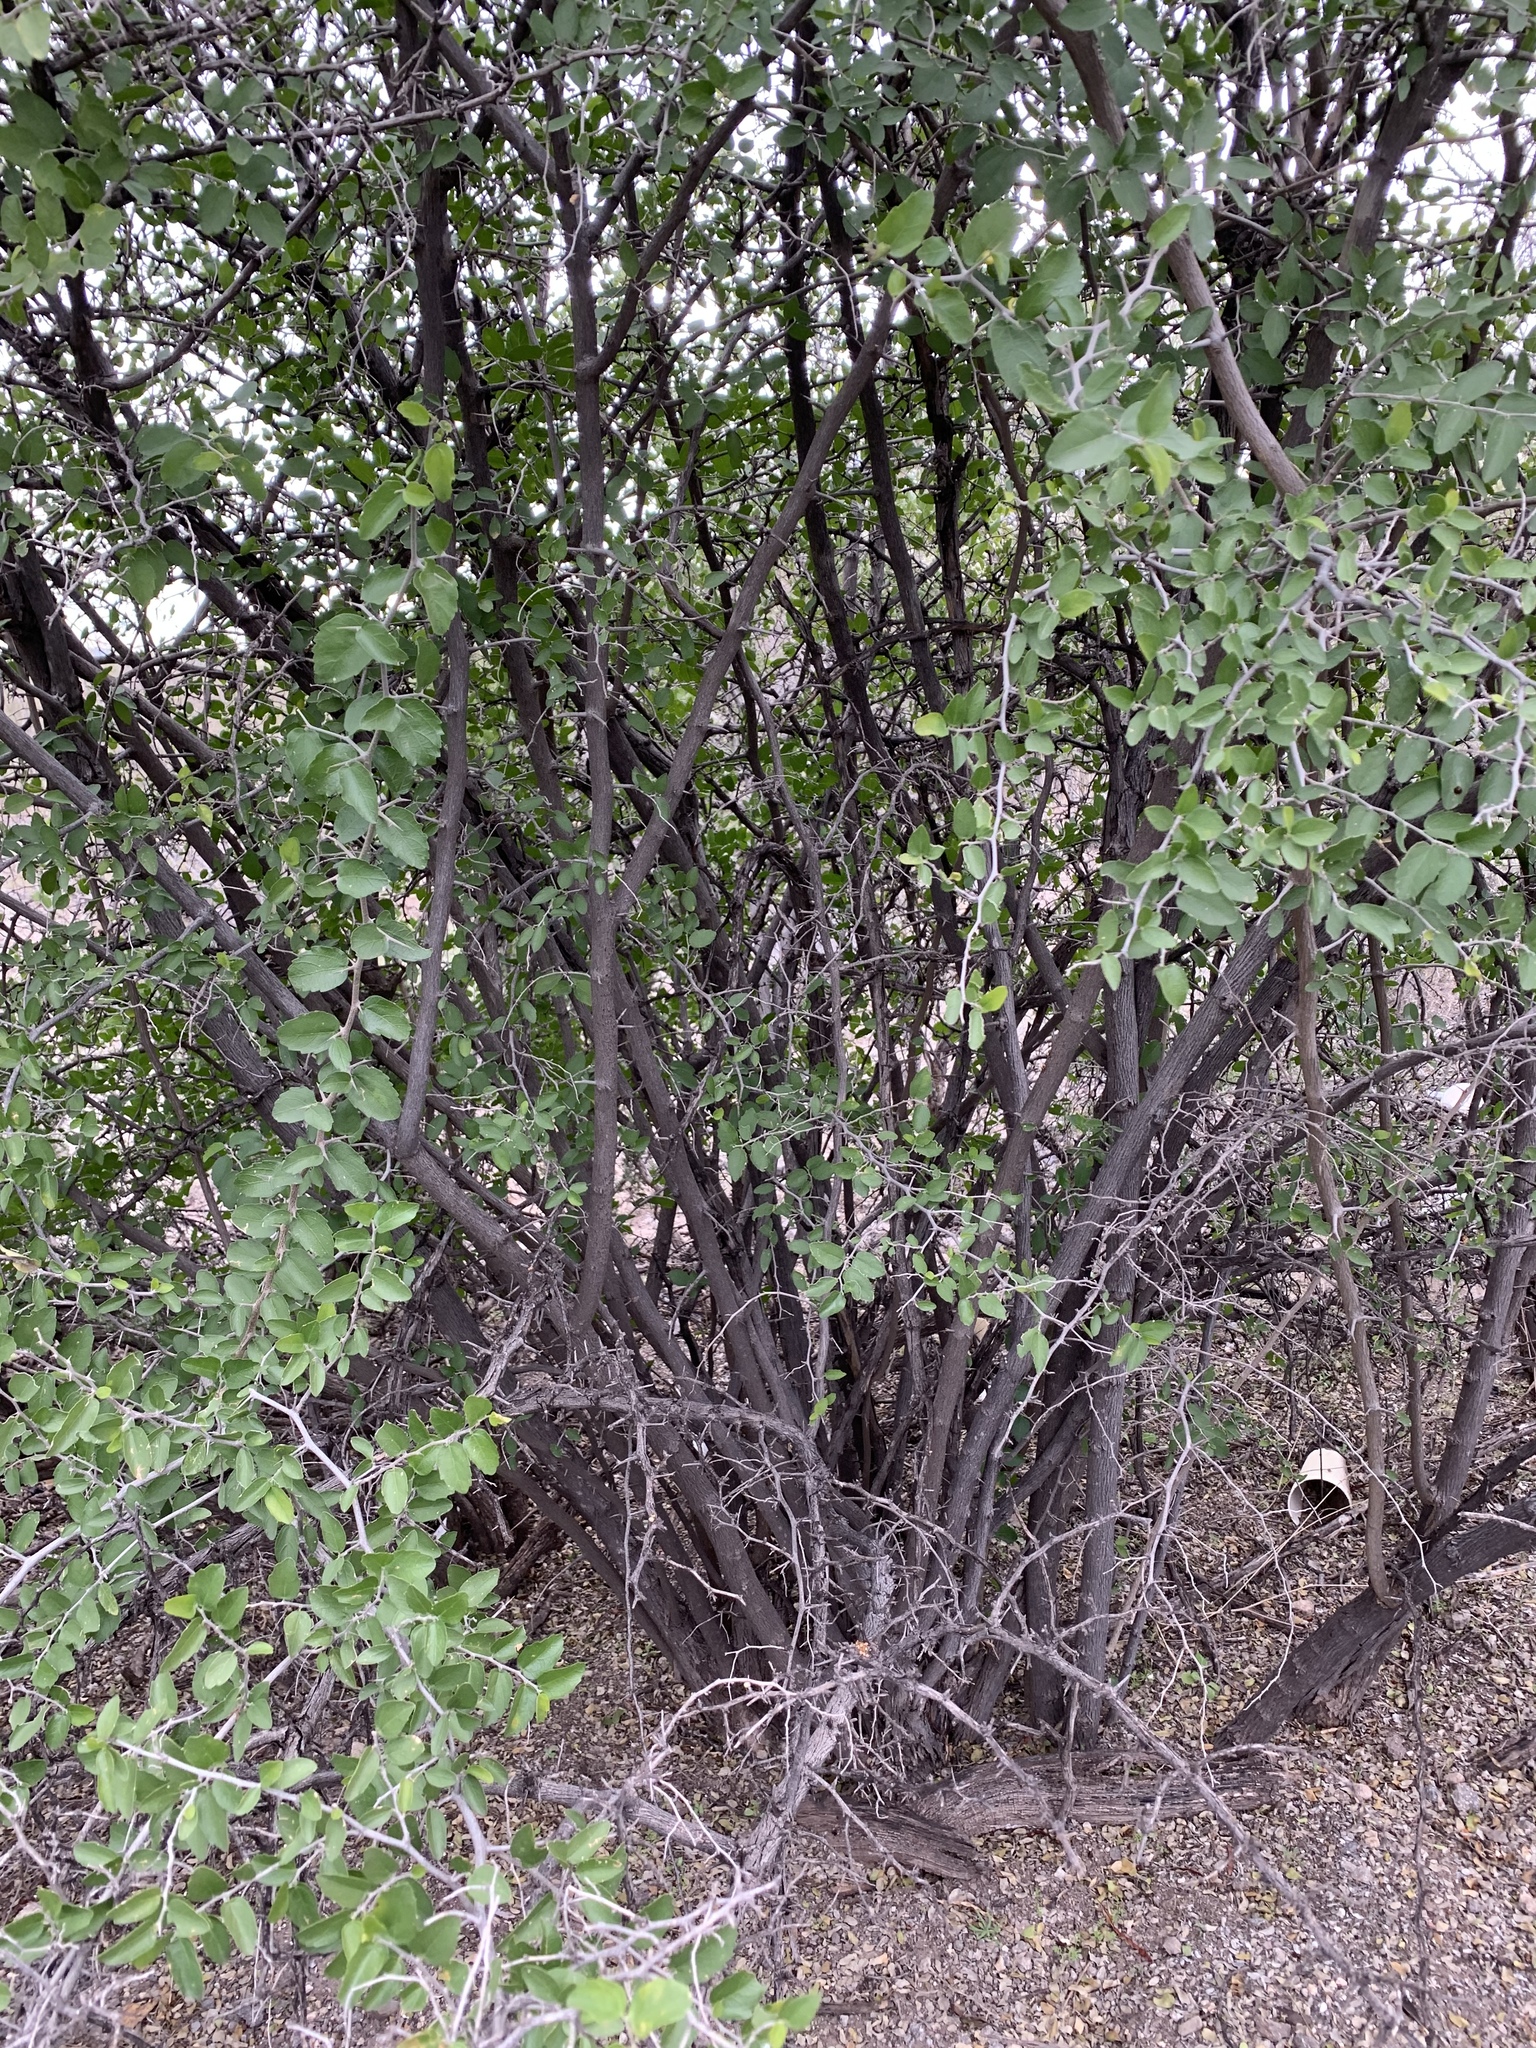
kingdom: Plantae
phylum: Tracheophyta
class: Magnoliopsida
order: Rosales
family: Cannabaceae
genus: Celtis
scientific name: Celtis pallida
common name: Desert hackberry
